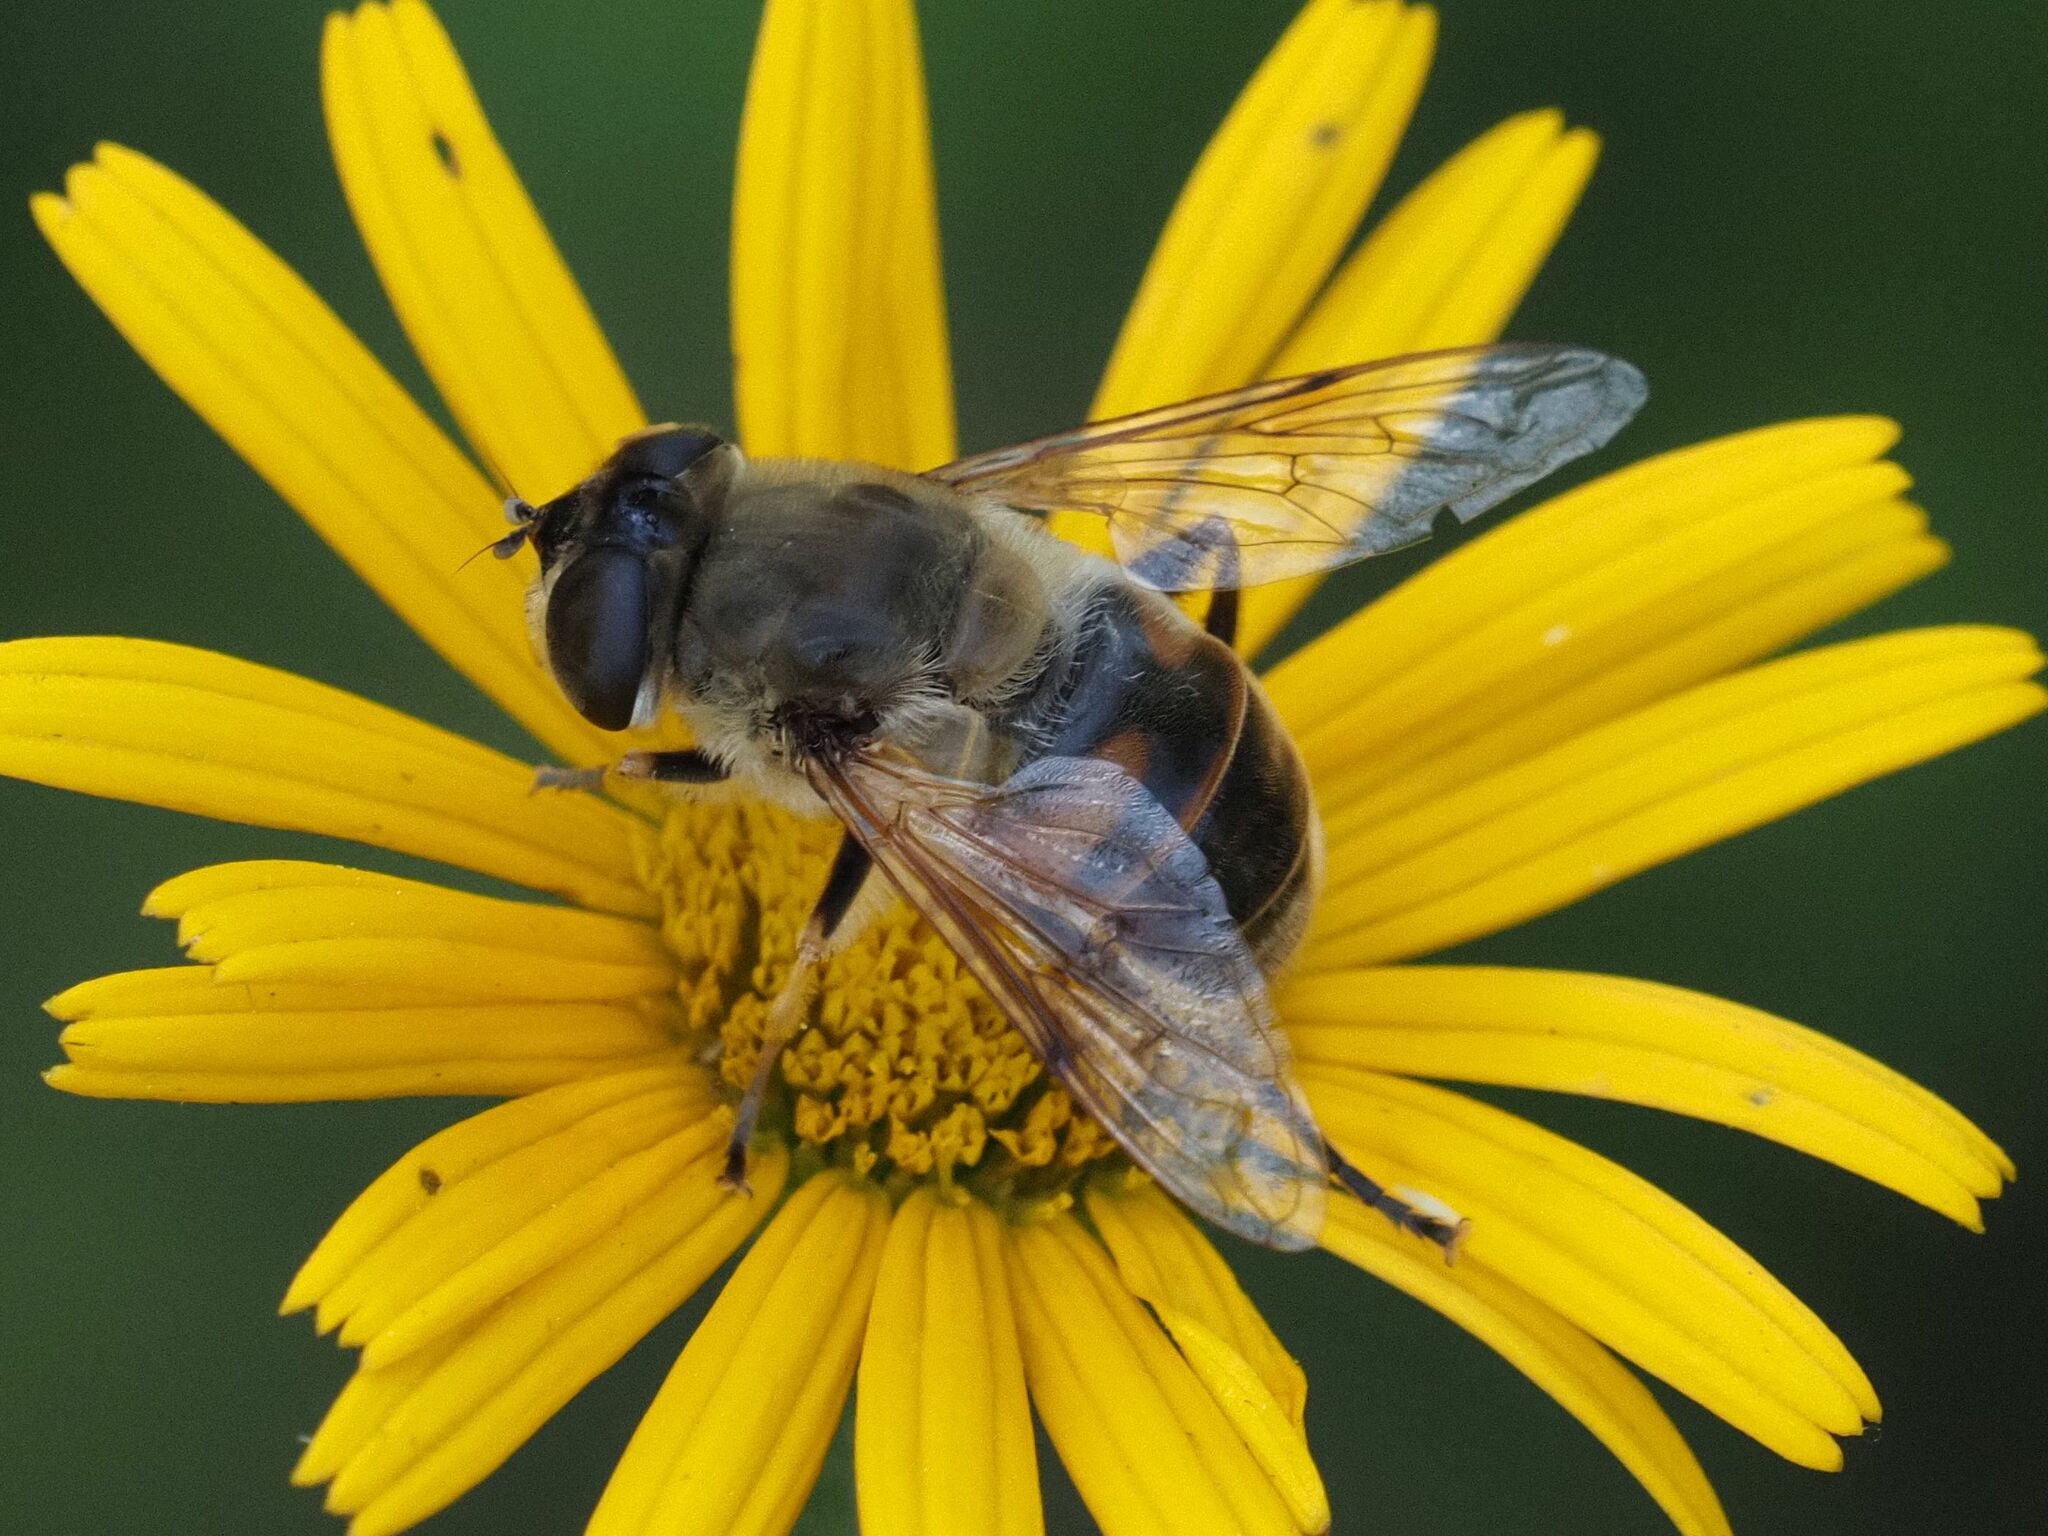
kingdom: Animalia
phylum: Arthropoda
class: Insecta
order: Diptera
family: Syrphidae
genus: Eristalis
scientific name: Eristalis tenax
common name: Drone fly
